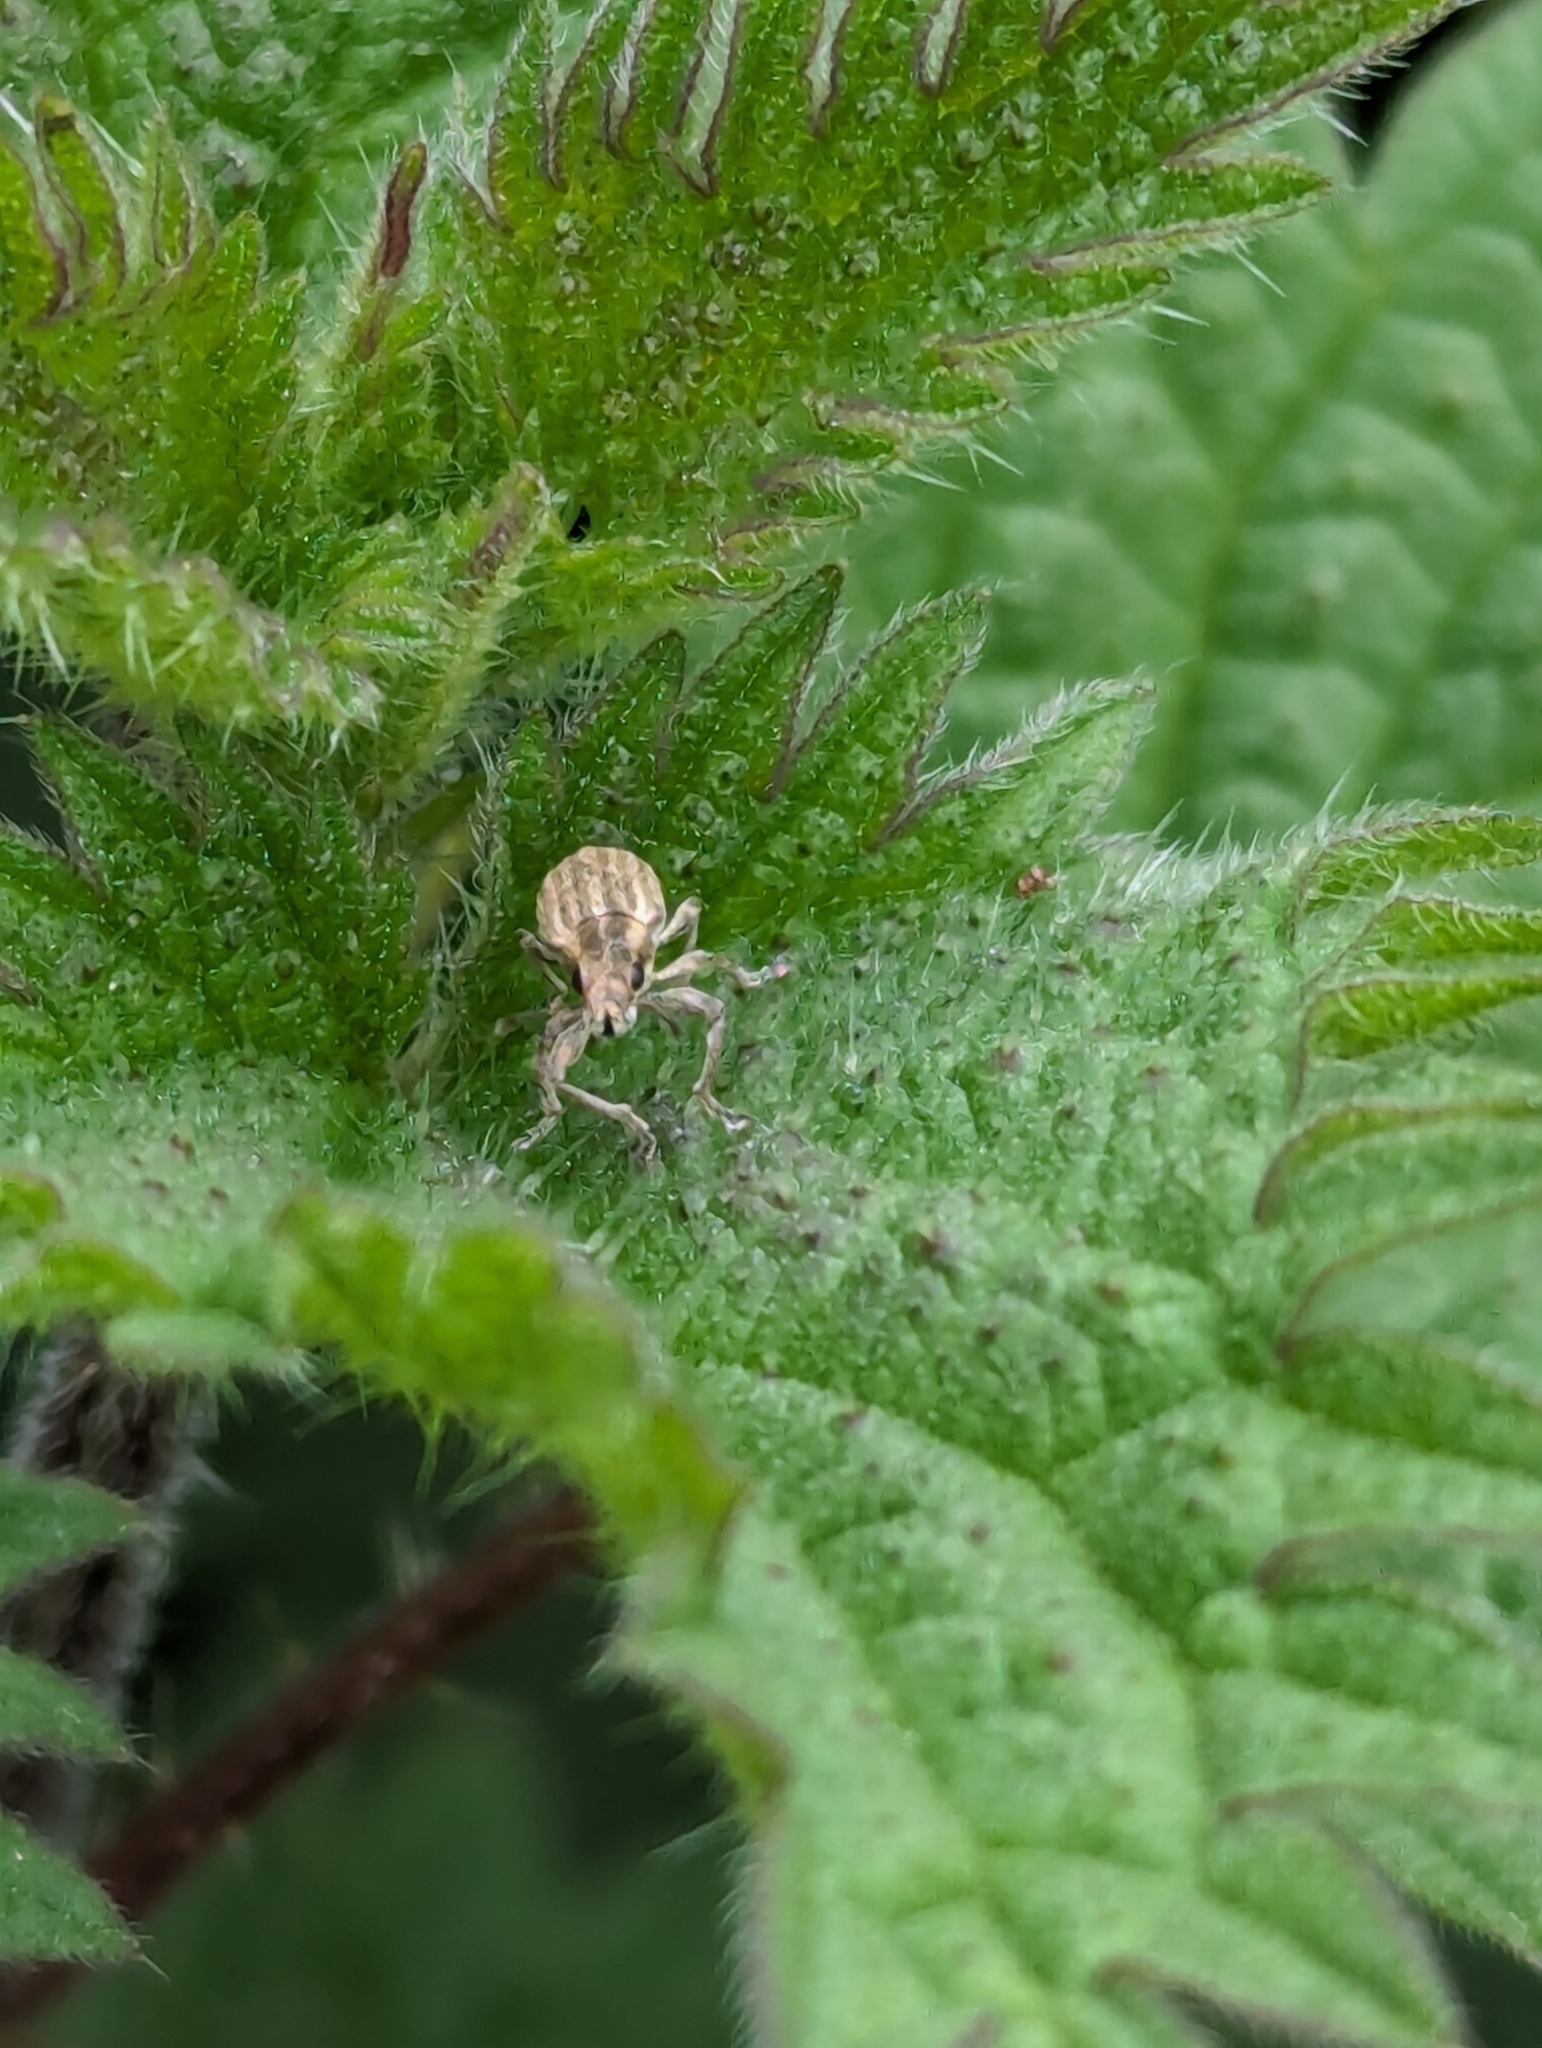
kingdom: Animalia
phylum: Arthropoda
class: Insecta
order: Coleoptera
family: Curculionidae
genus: Sitona
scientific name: Sitona lineatus
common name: Weevil
